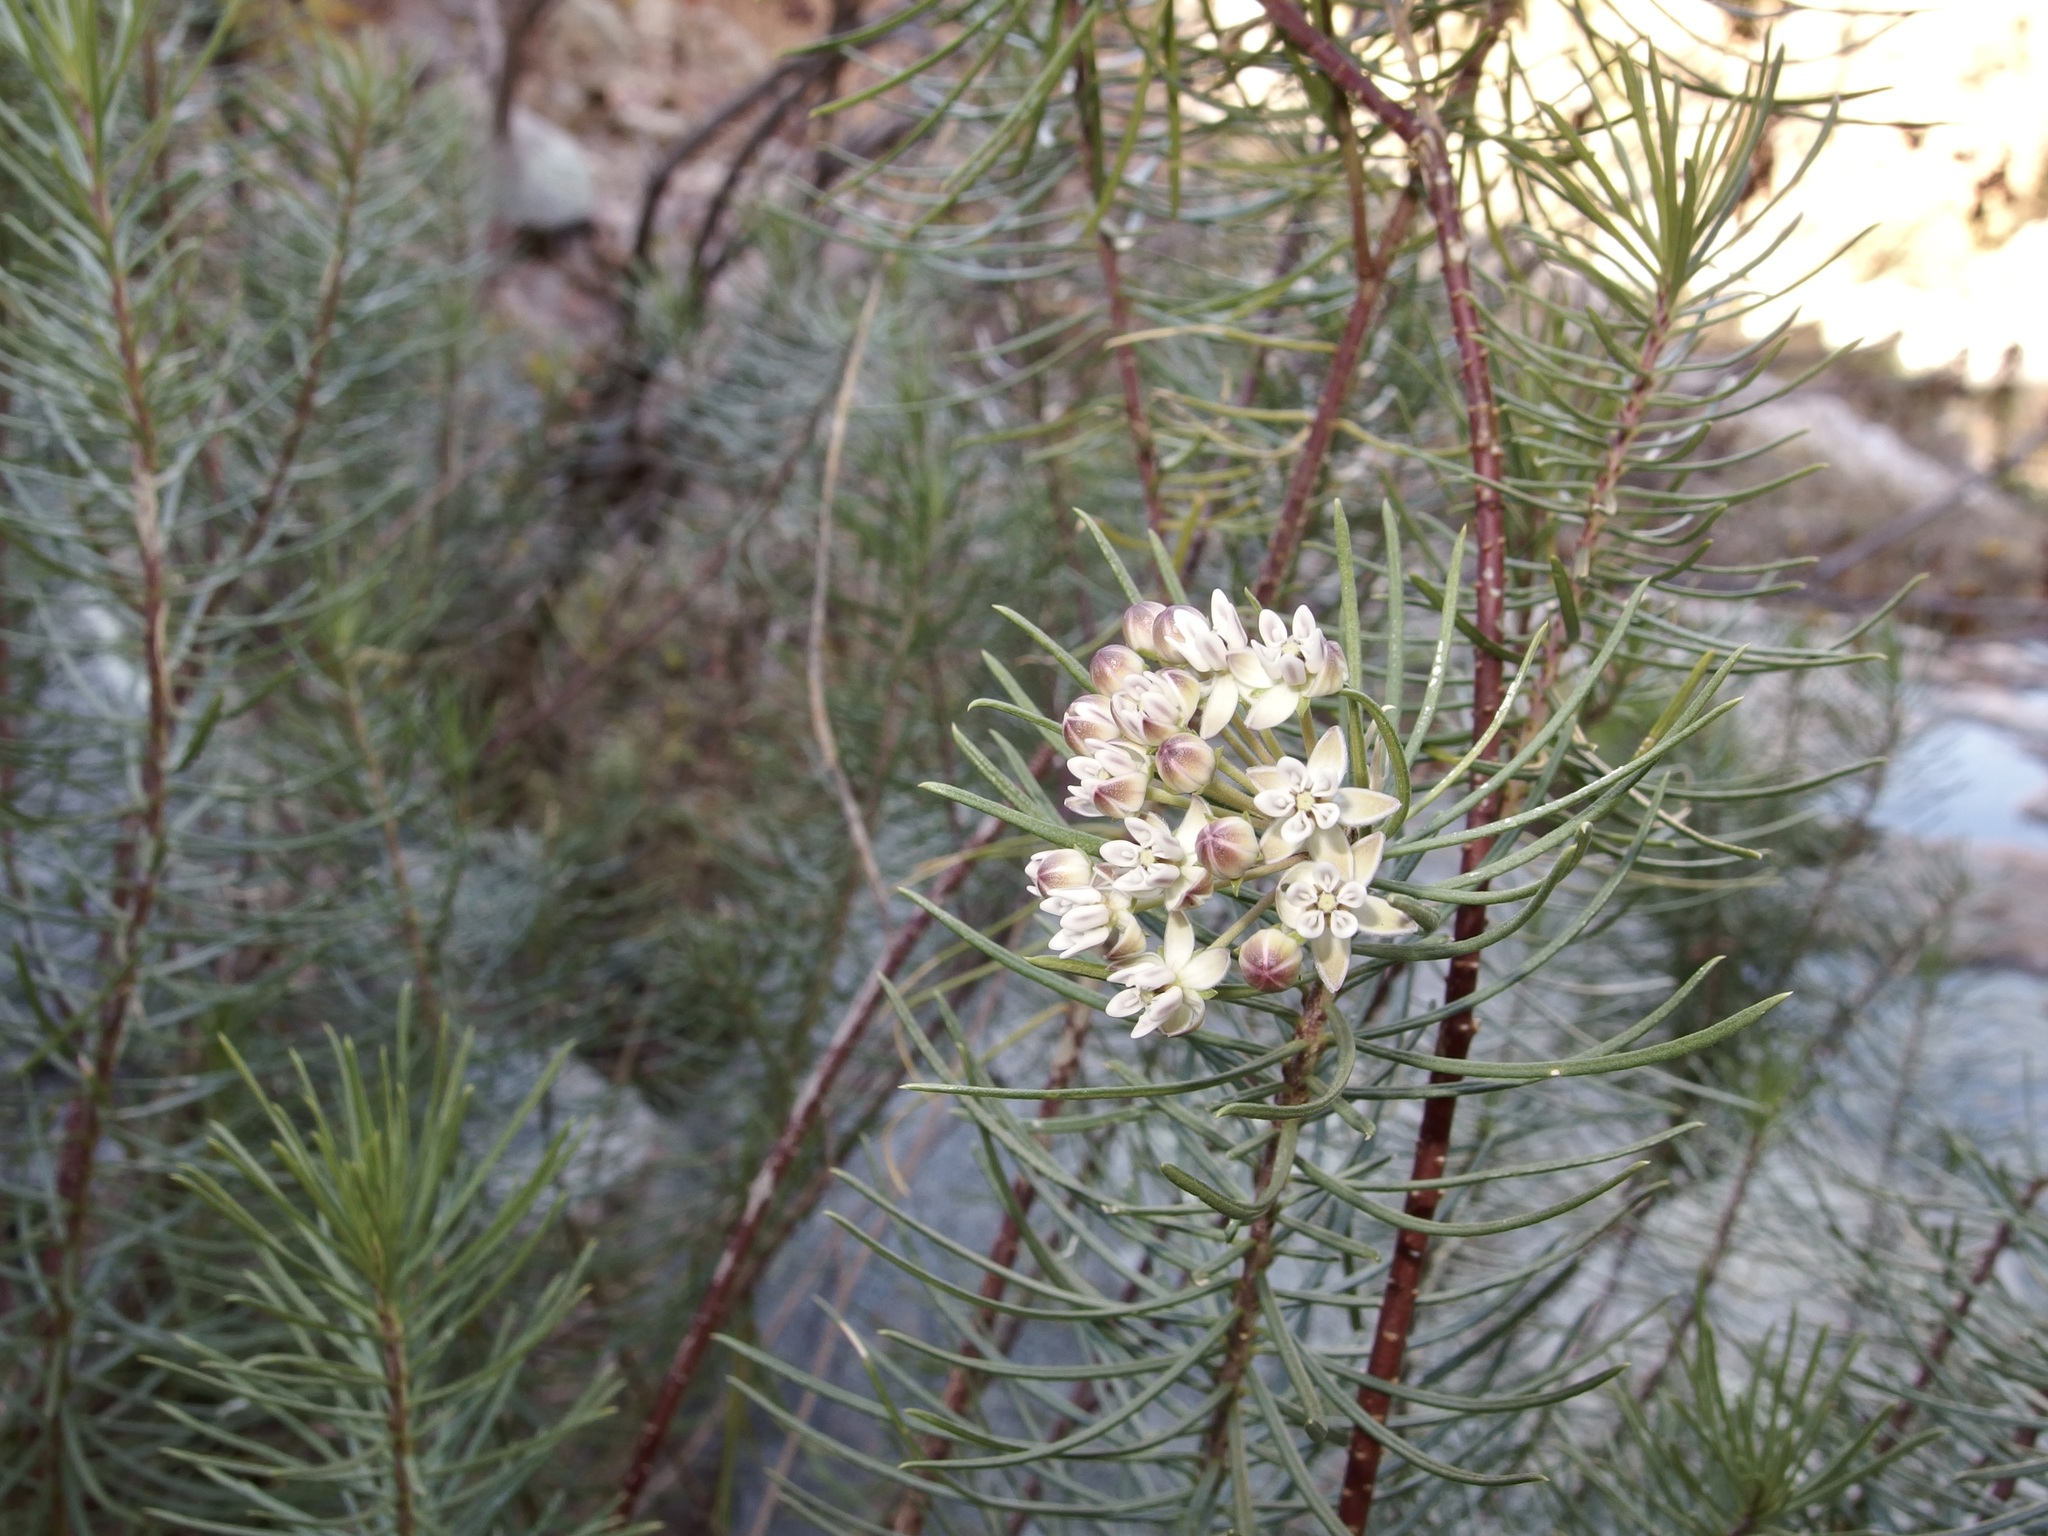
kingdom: Plantae
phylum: Tracheophyta
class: Magnoliopsida
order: Gentianales
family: Apocynaceae
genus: Asclepias
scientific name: Asclepias linaria
